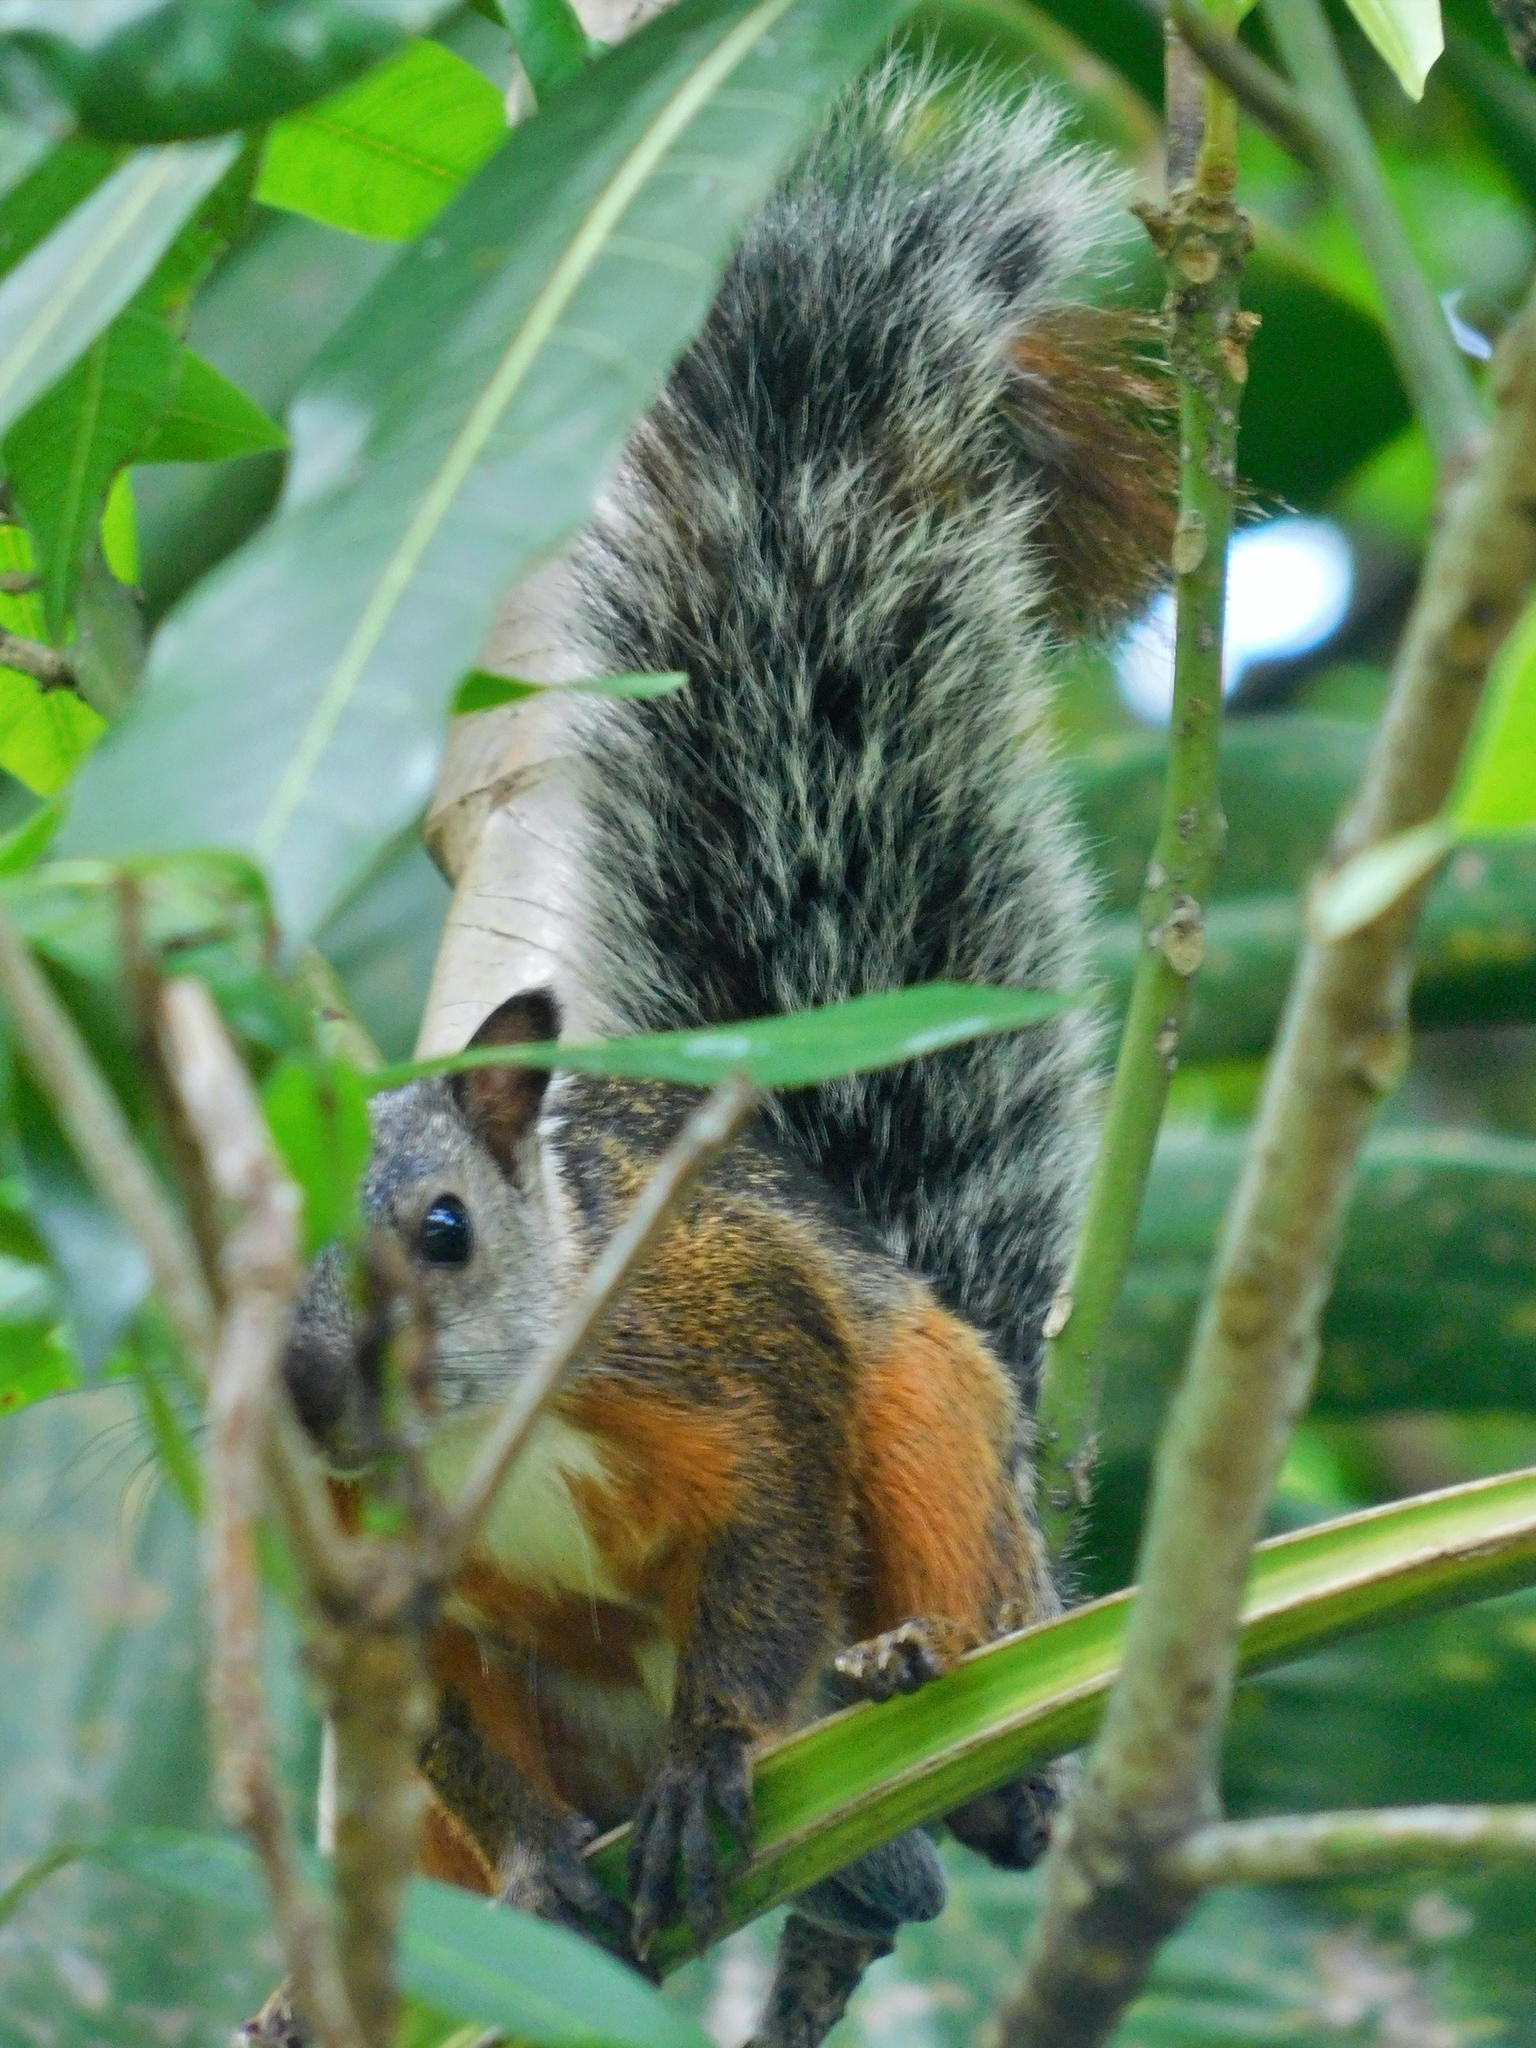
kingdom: Animalia
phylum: Chordata
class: Mammalia
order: Rodentia
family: Sciuridae
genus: Sciurus
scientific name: Sciurus variegatoides
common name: Variegated squirrel
